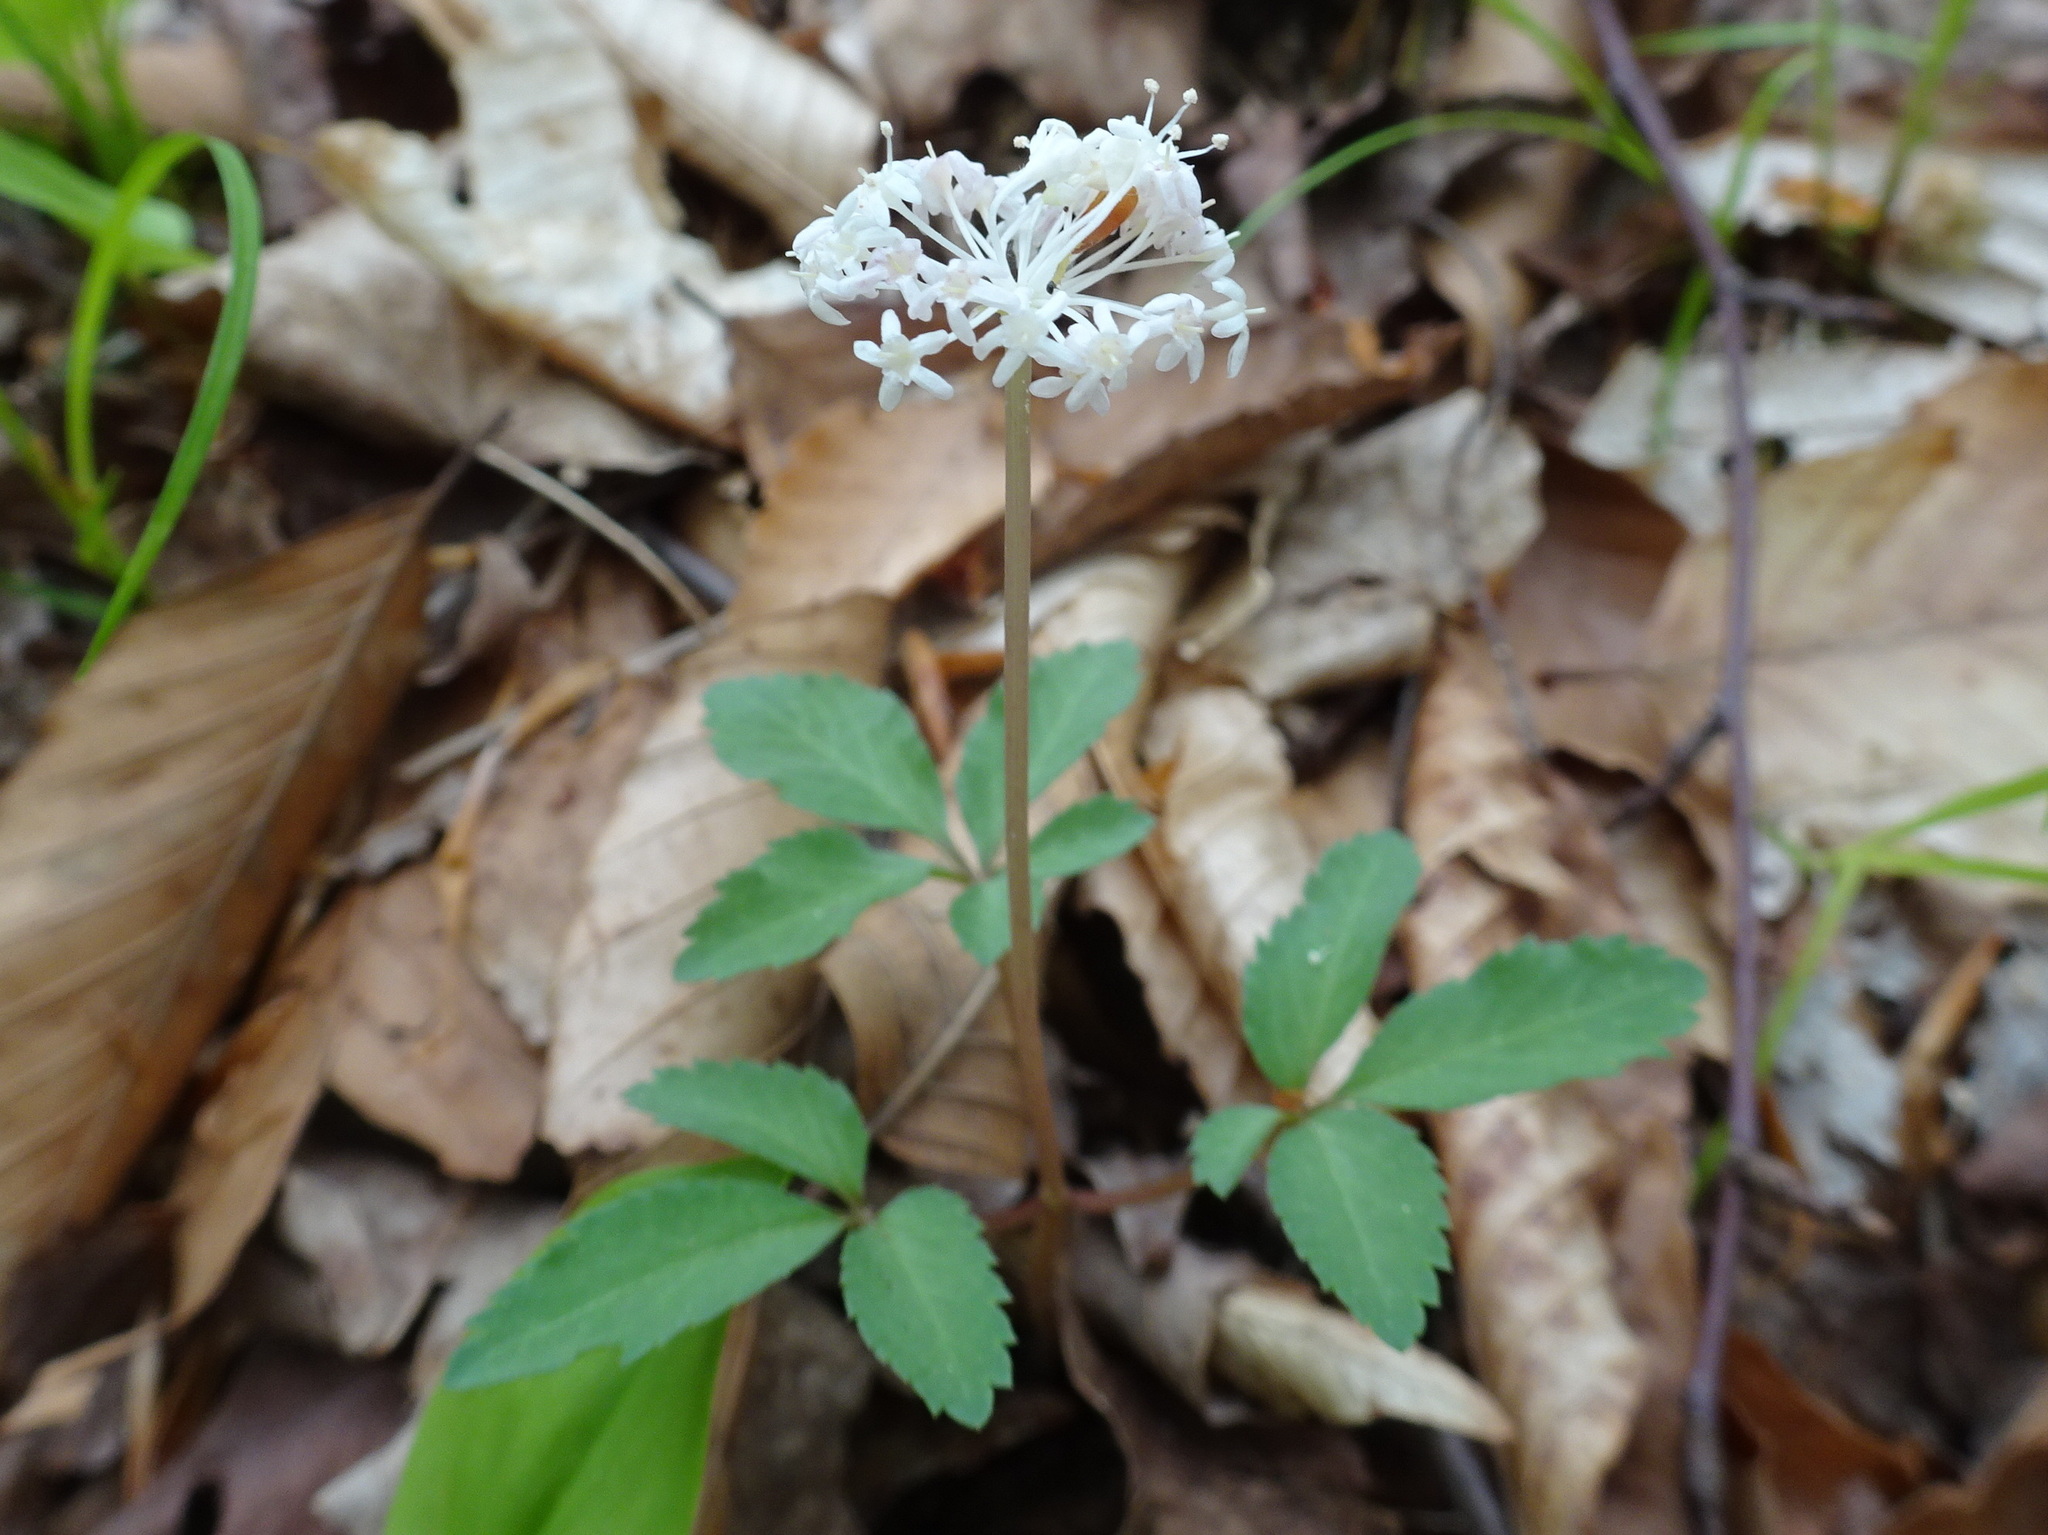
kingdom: Plantae
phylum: Tracheophyta
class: Magnoliopsida
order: Apiales
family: Araliaceae
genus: Panax
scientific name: Panax trifolius
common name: Dwarf ginseng
